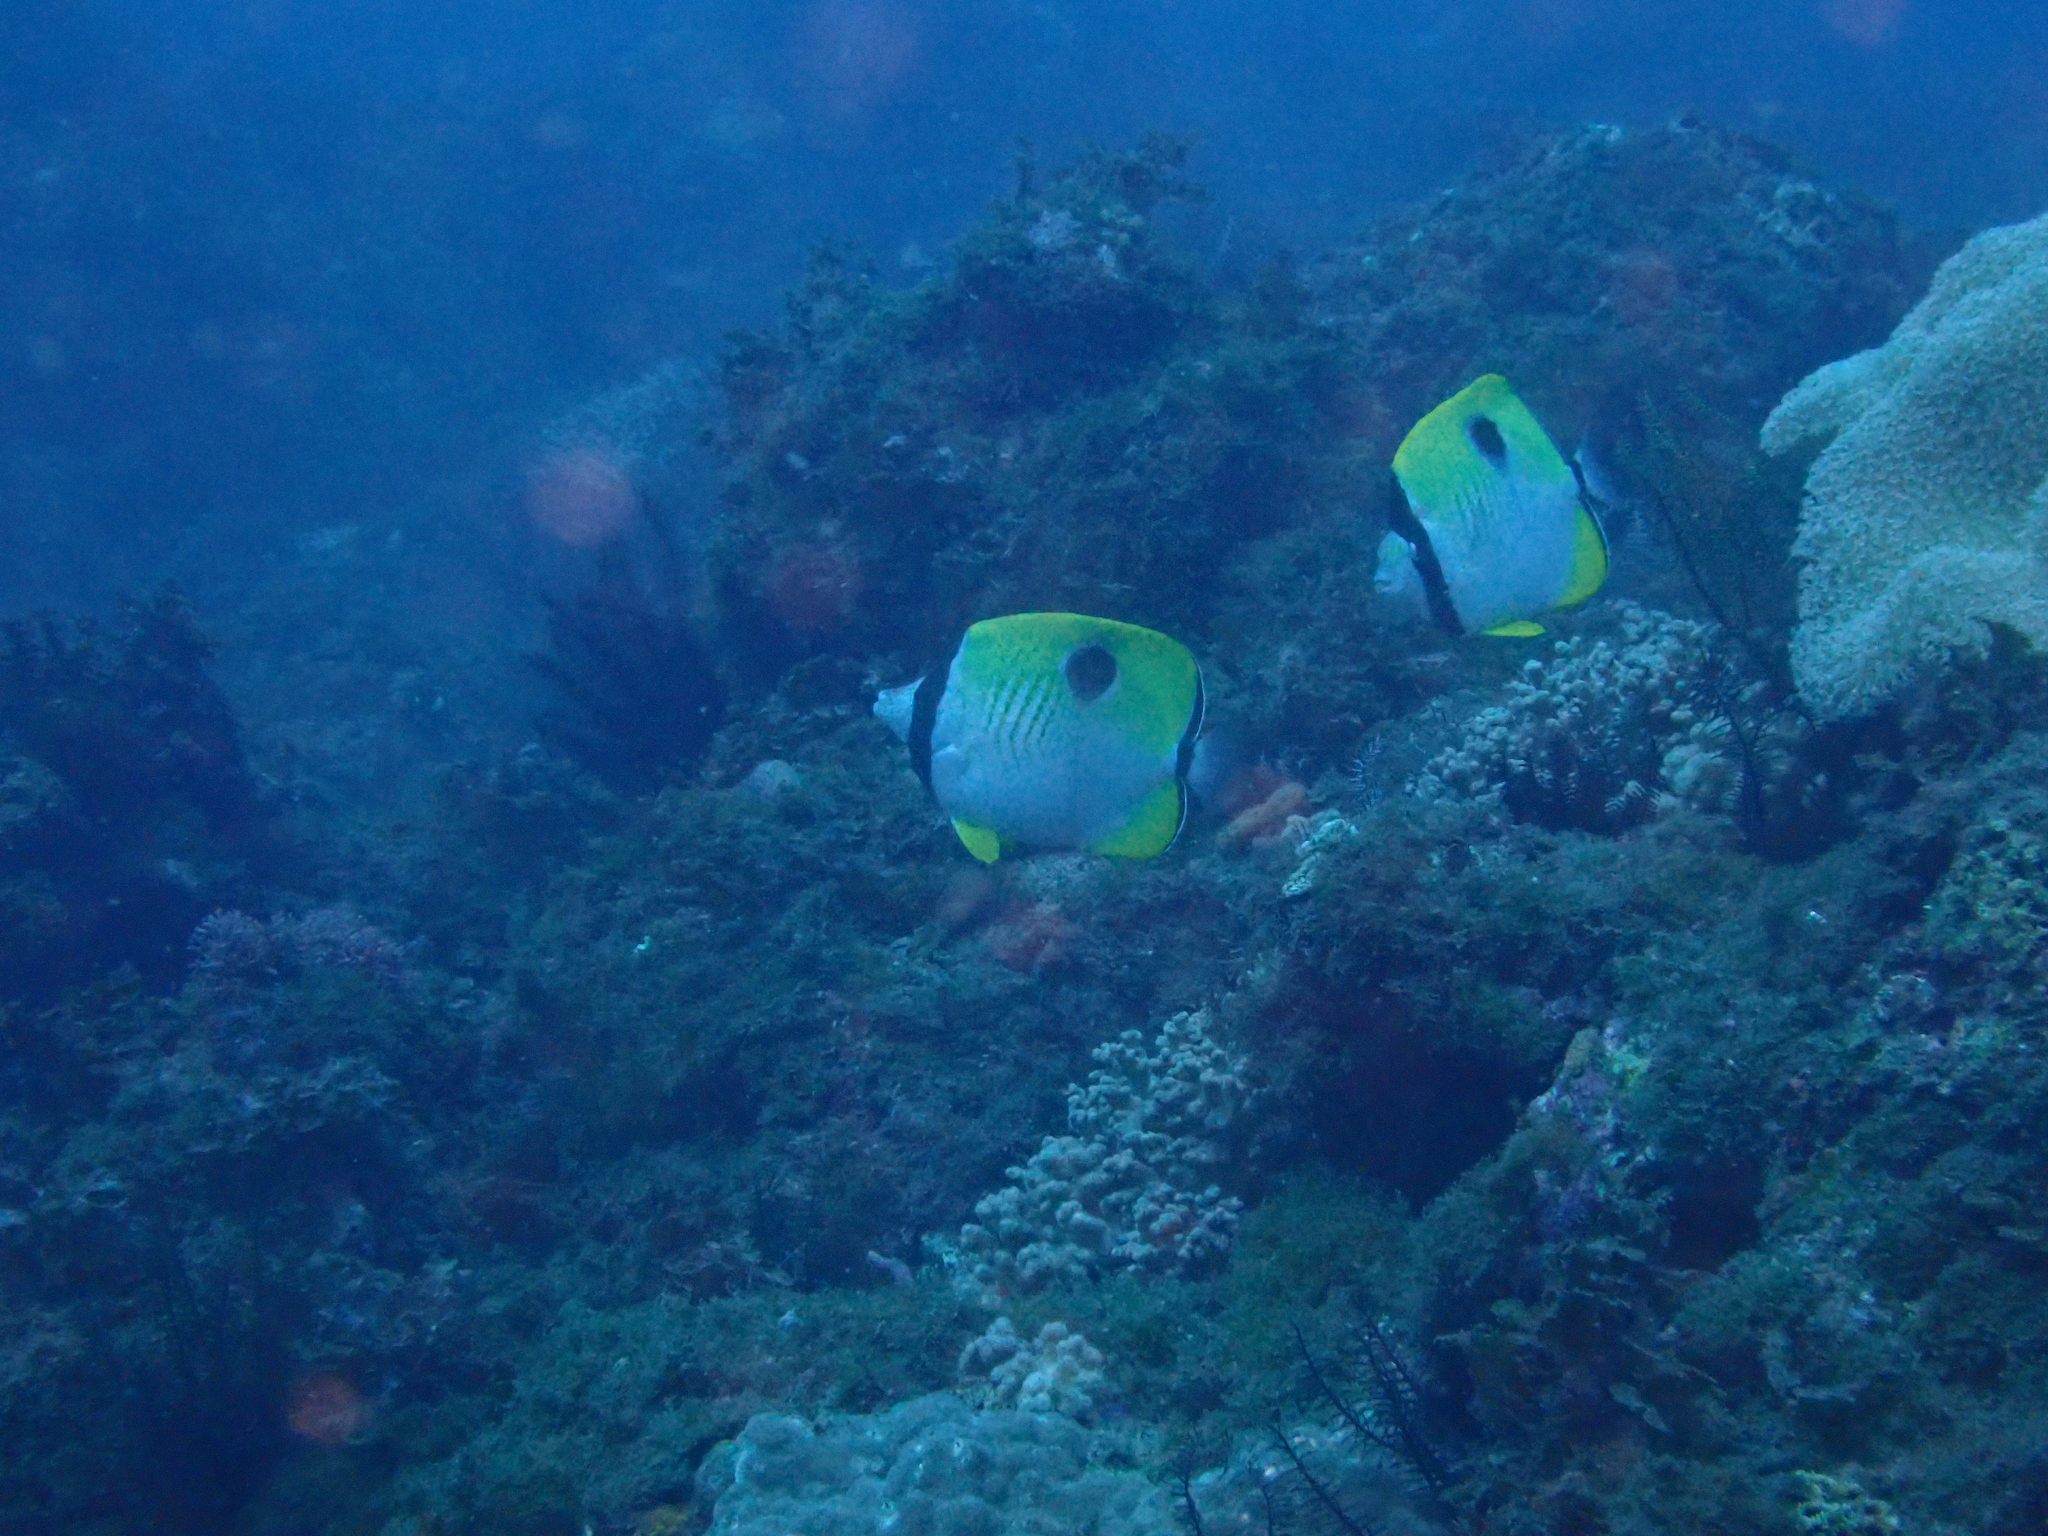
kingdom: Animalia
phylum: Chordata
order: Perciformes
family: Chaetodontidae
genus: Chaetodon
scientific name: Chaetodon unimaculatus
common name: Teardrop butterflyfish
